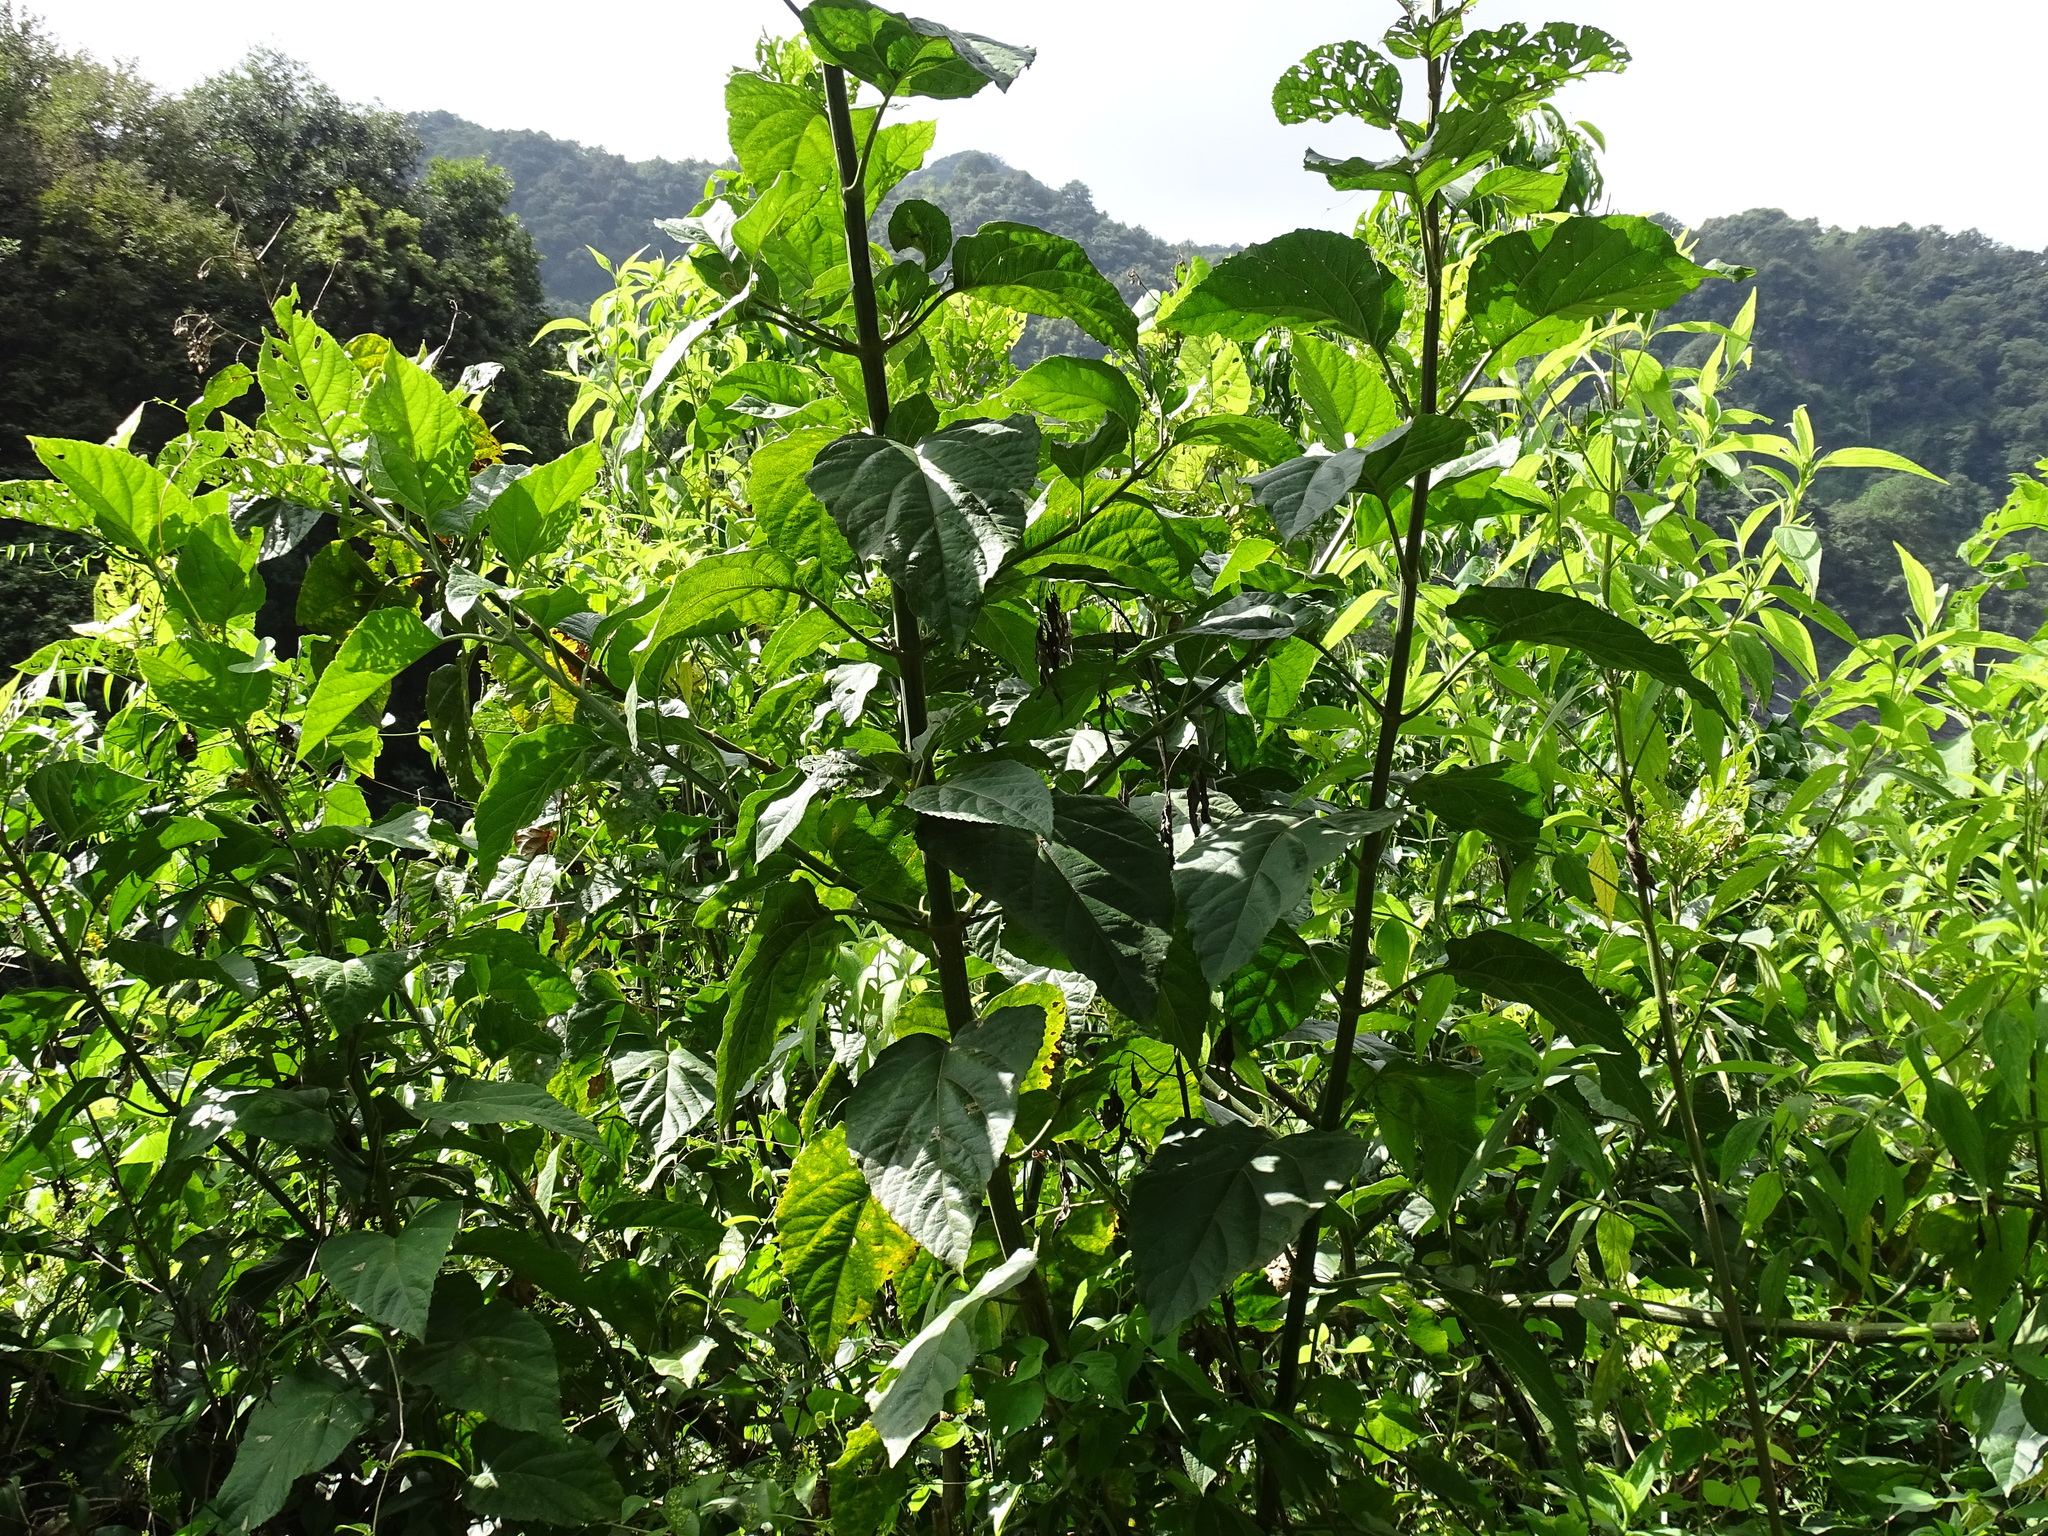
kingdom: Plantae
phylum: Tracheophyta
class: Magnoliopsida
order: Asterales
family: Asteraceae
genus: Critonia
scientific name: Critonia morifolia
